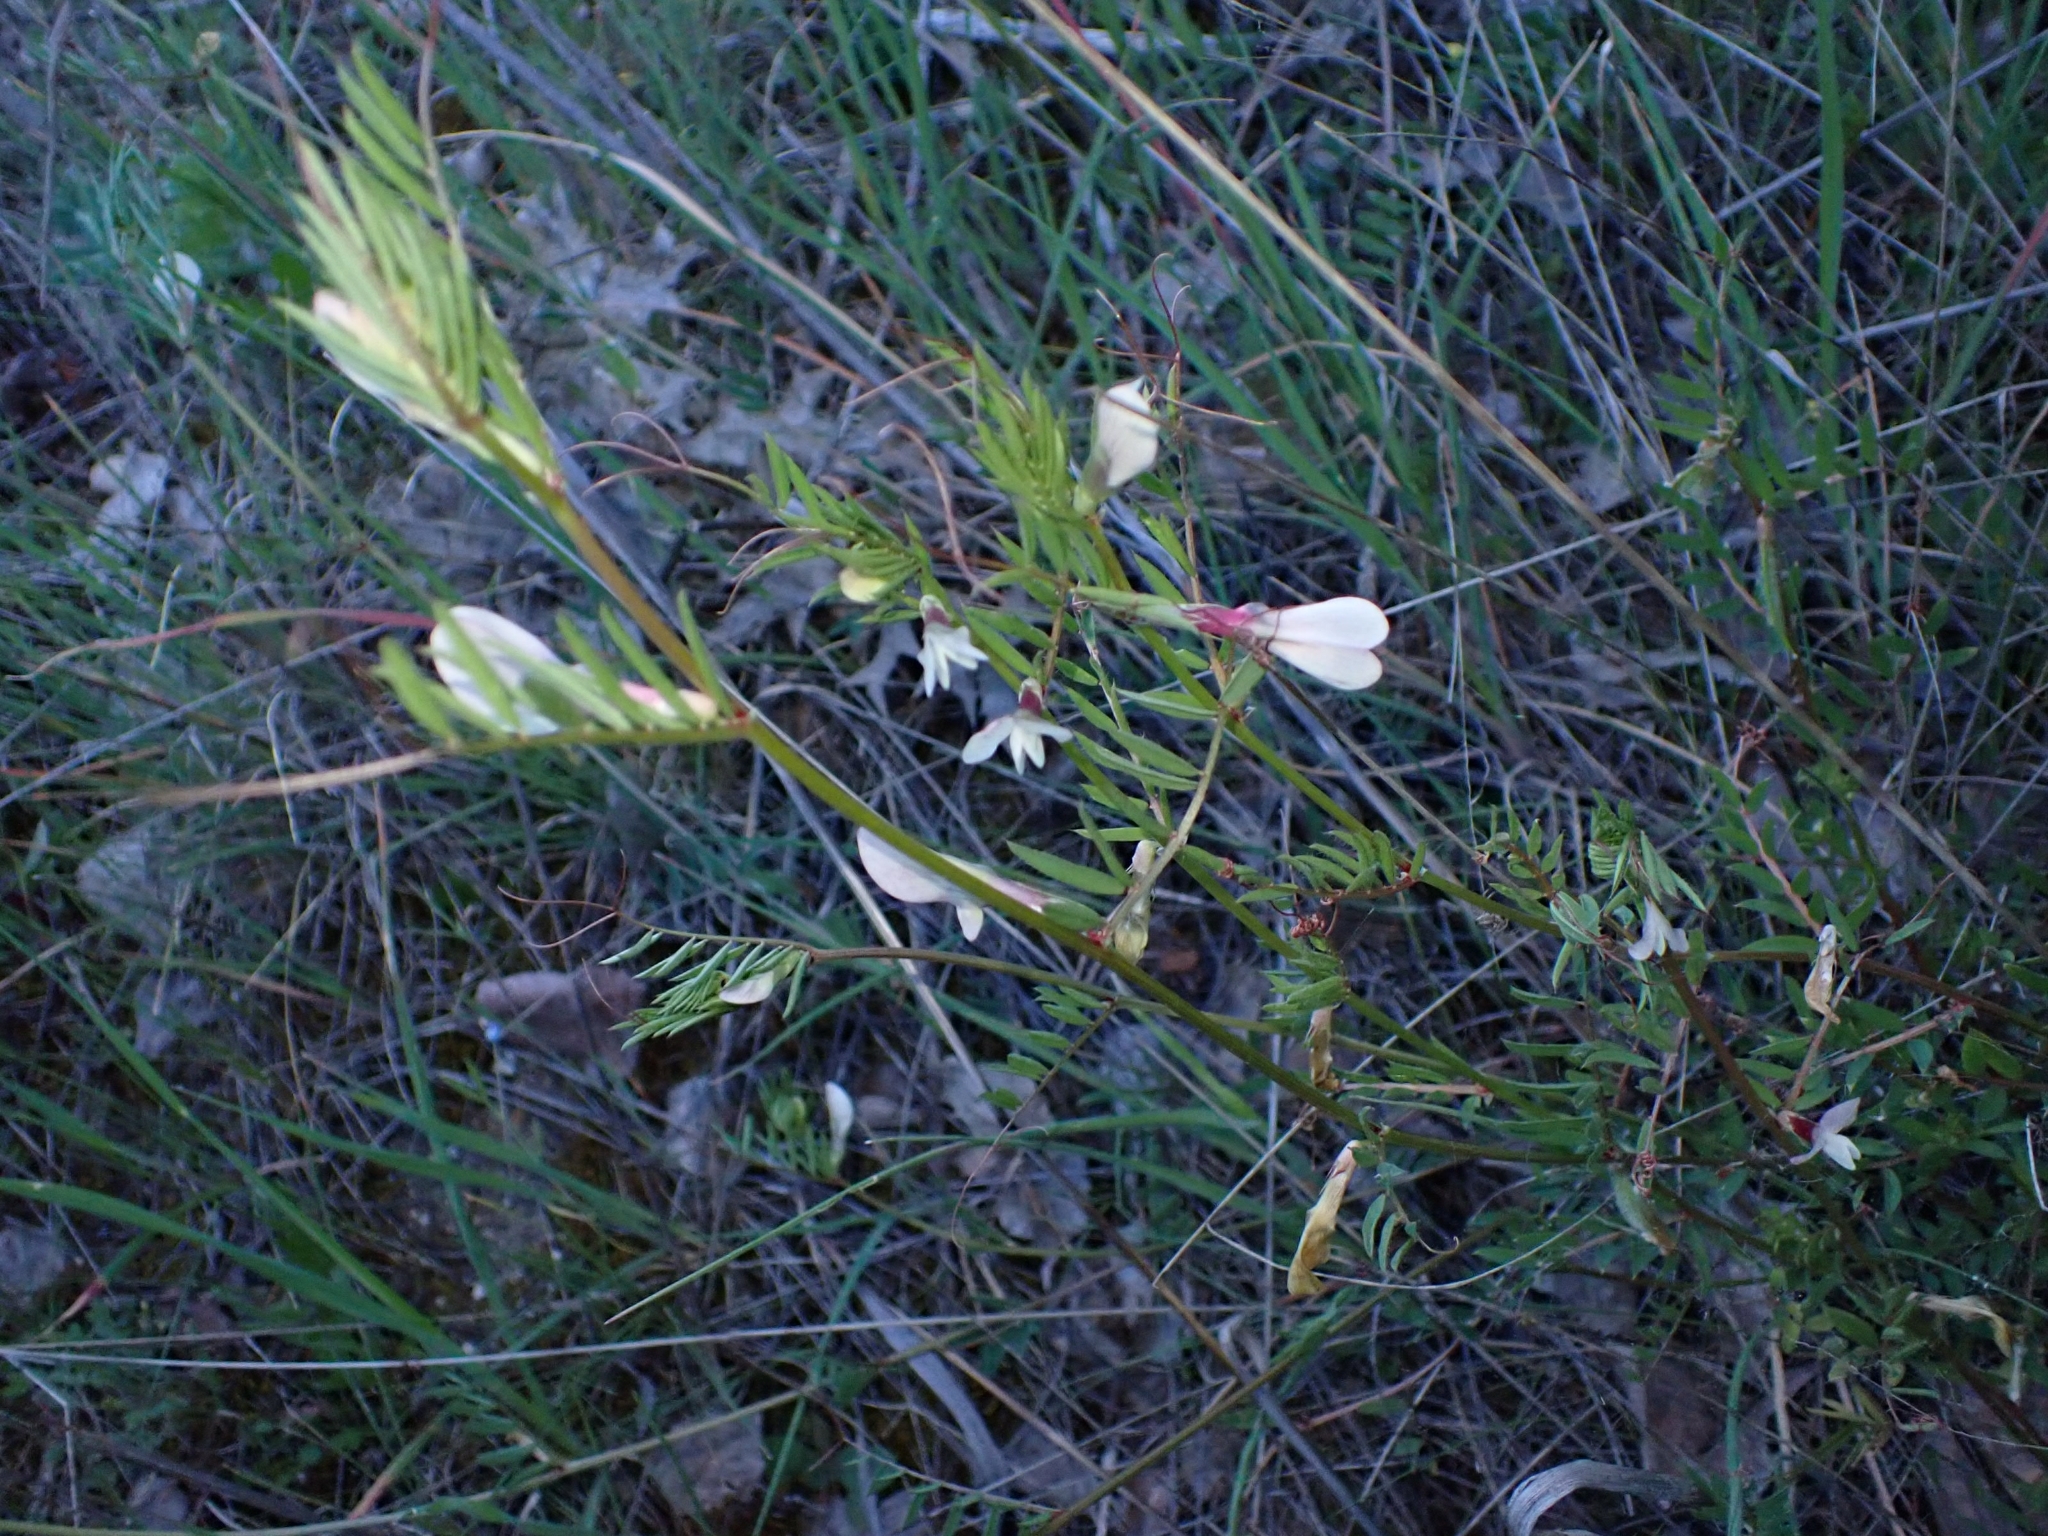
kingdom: Plantae
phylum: Tracheophyta
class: Magnoliopsida
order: Fabales
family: Fabaceae
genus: Vicia
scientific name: Vicia lutea
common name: Smooth yellow vetch
